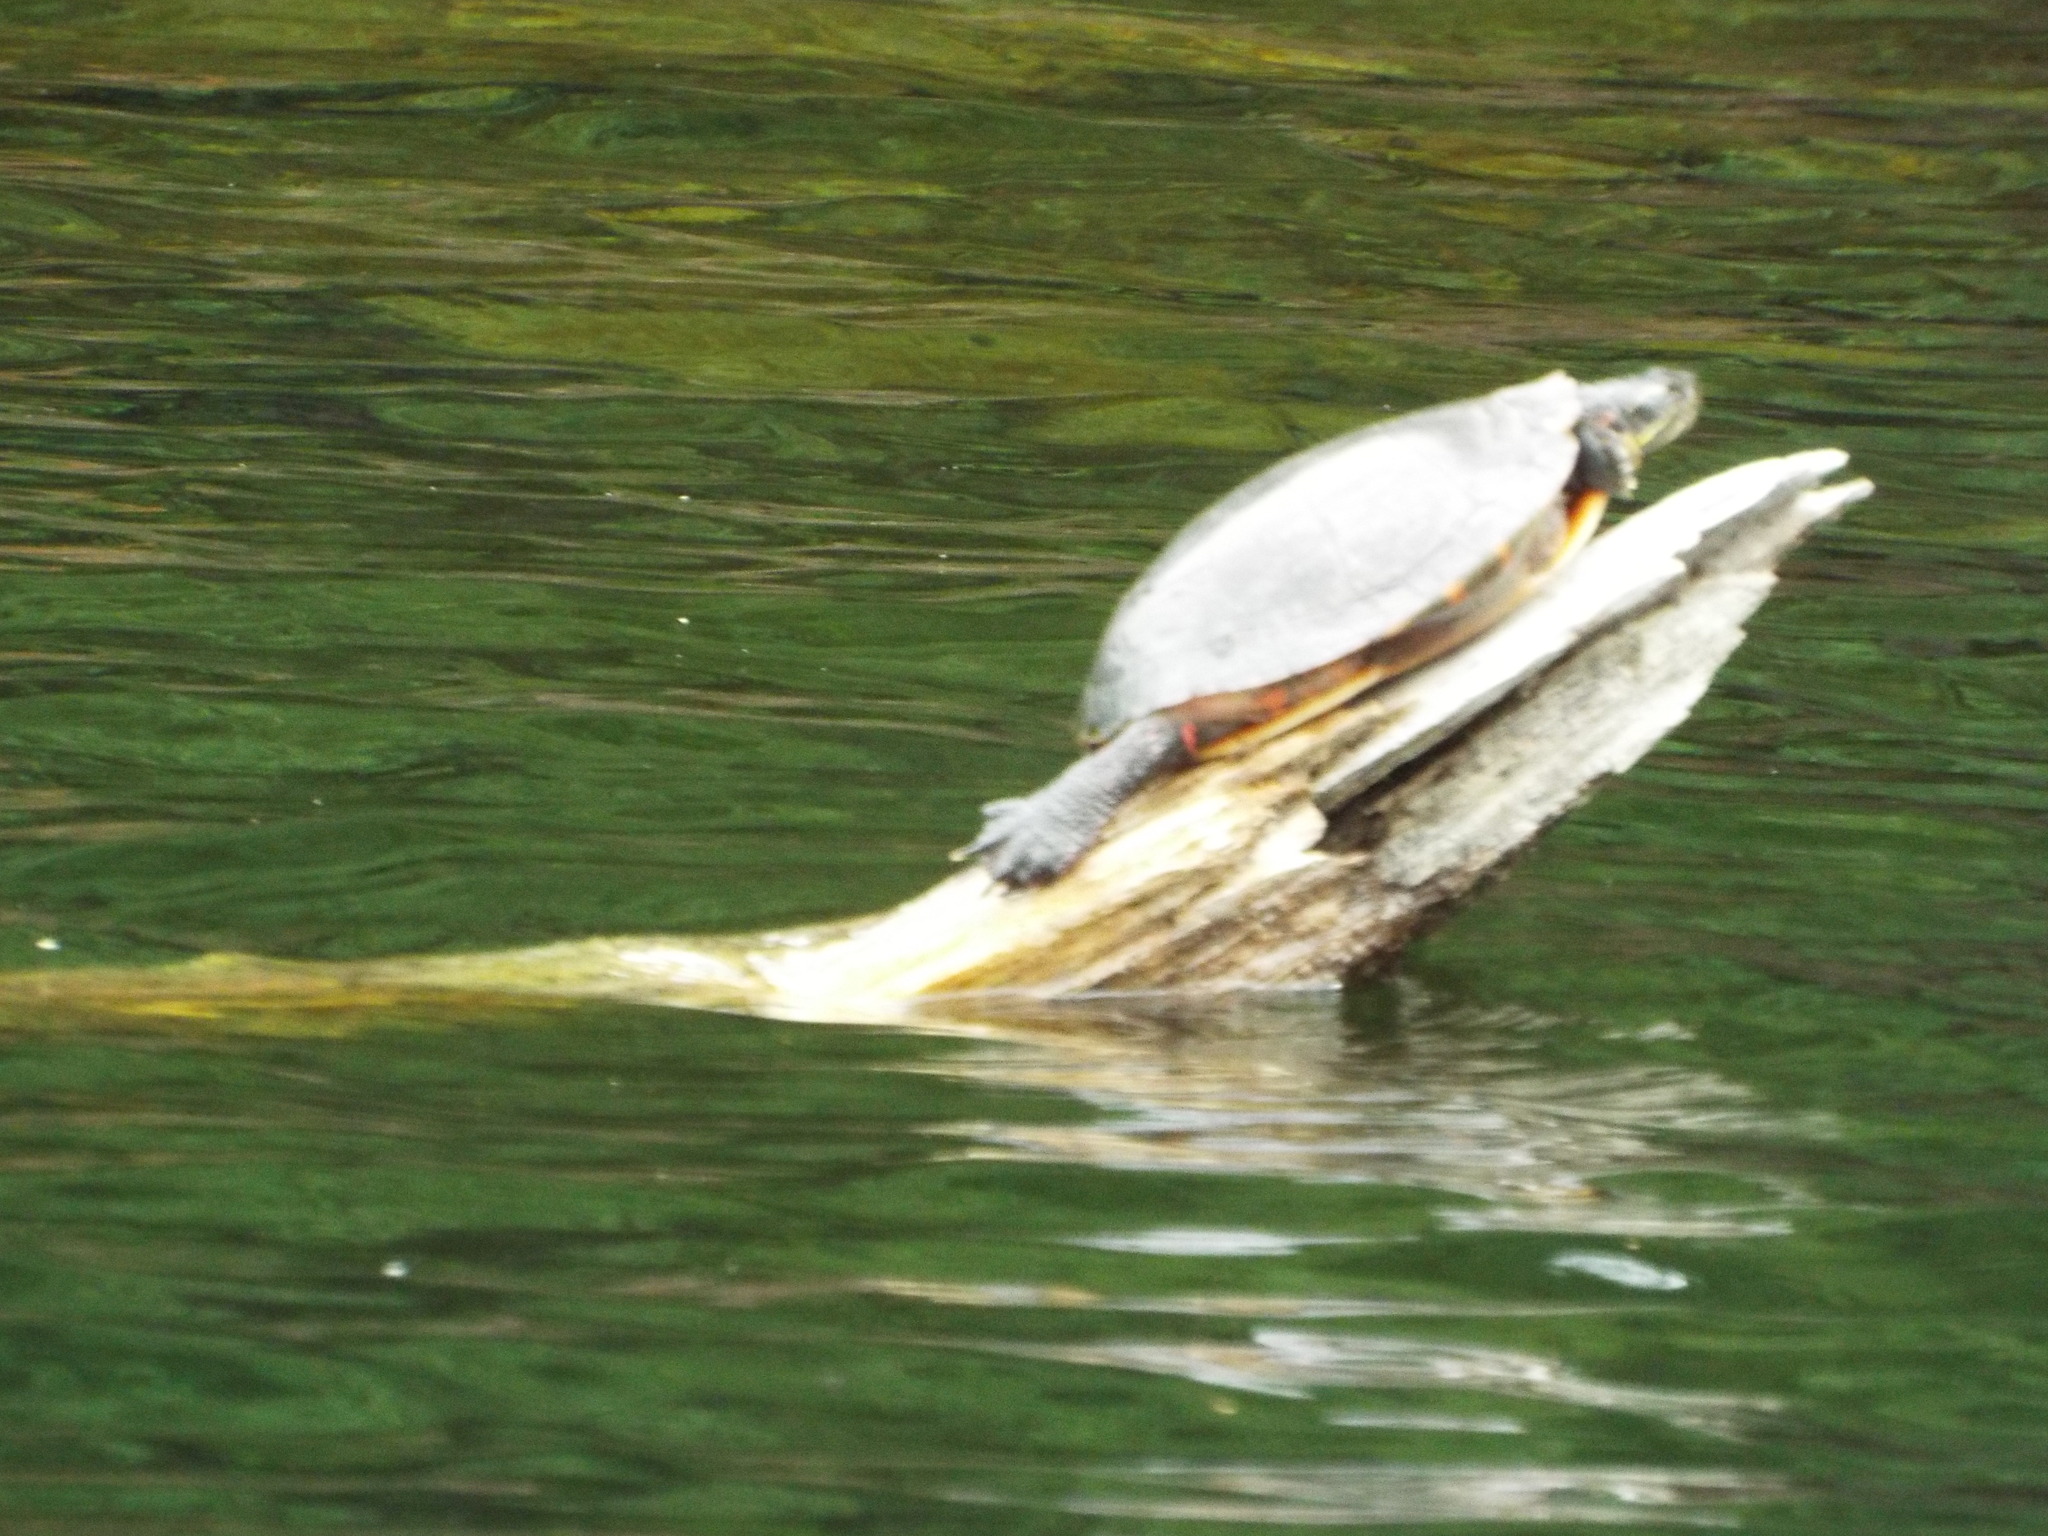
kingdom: Animalia
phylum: Chordata
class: Testudines
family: Emydidae
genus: Chrysemys
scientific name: Chrysemys picta
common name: Painted turtle
